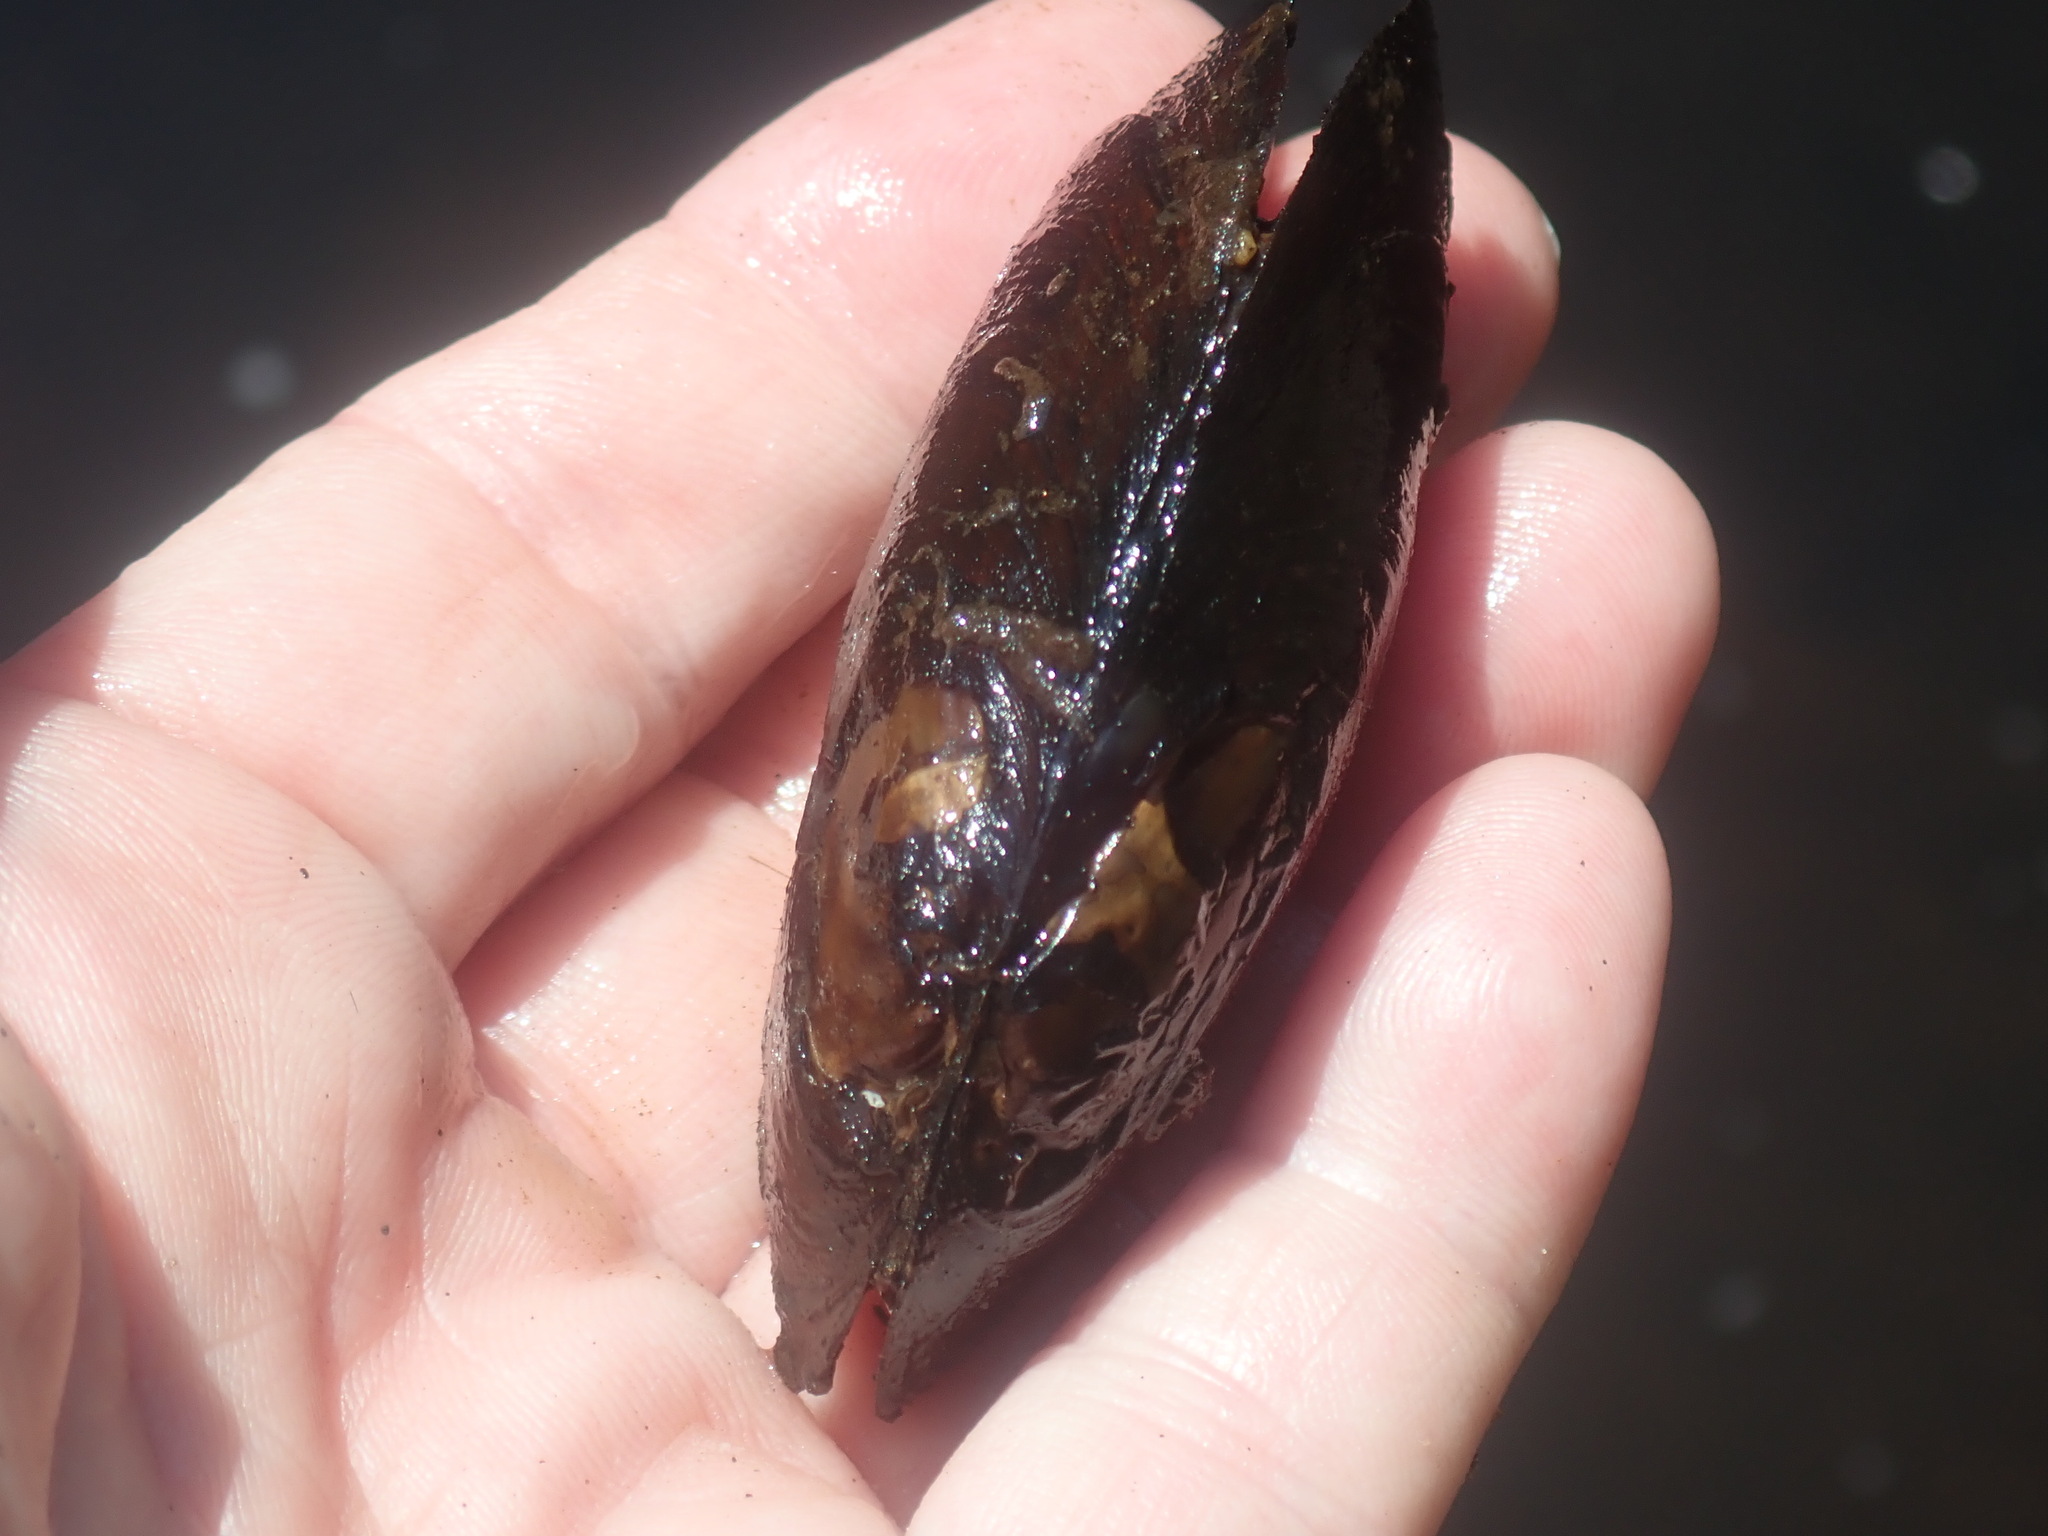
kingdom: Animalia
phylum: Mollusca
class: Bivalvia
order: Unionida
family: Unionidae
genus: Elliptio
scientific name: Elliptio complanata
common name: Eastern elliptio
